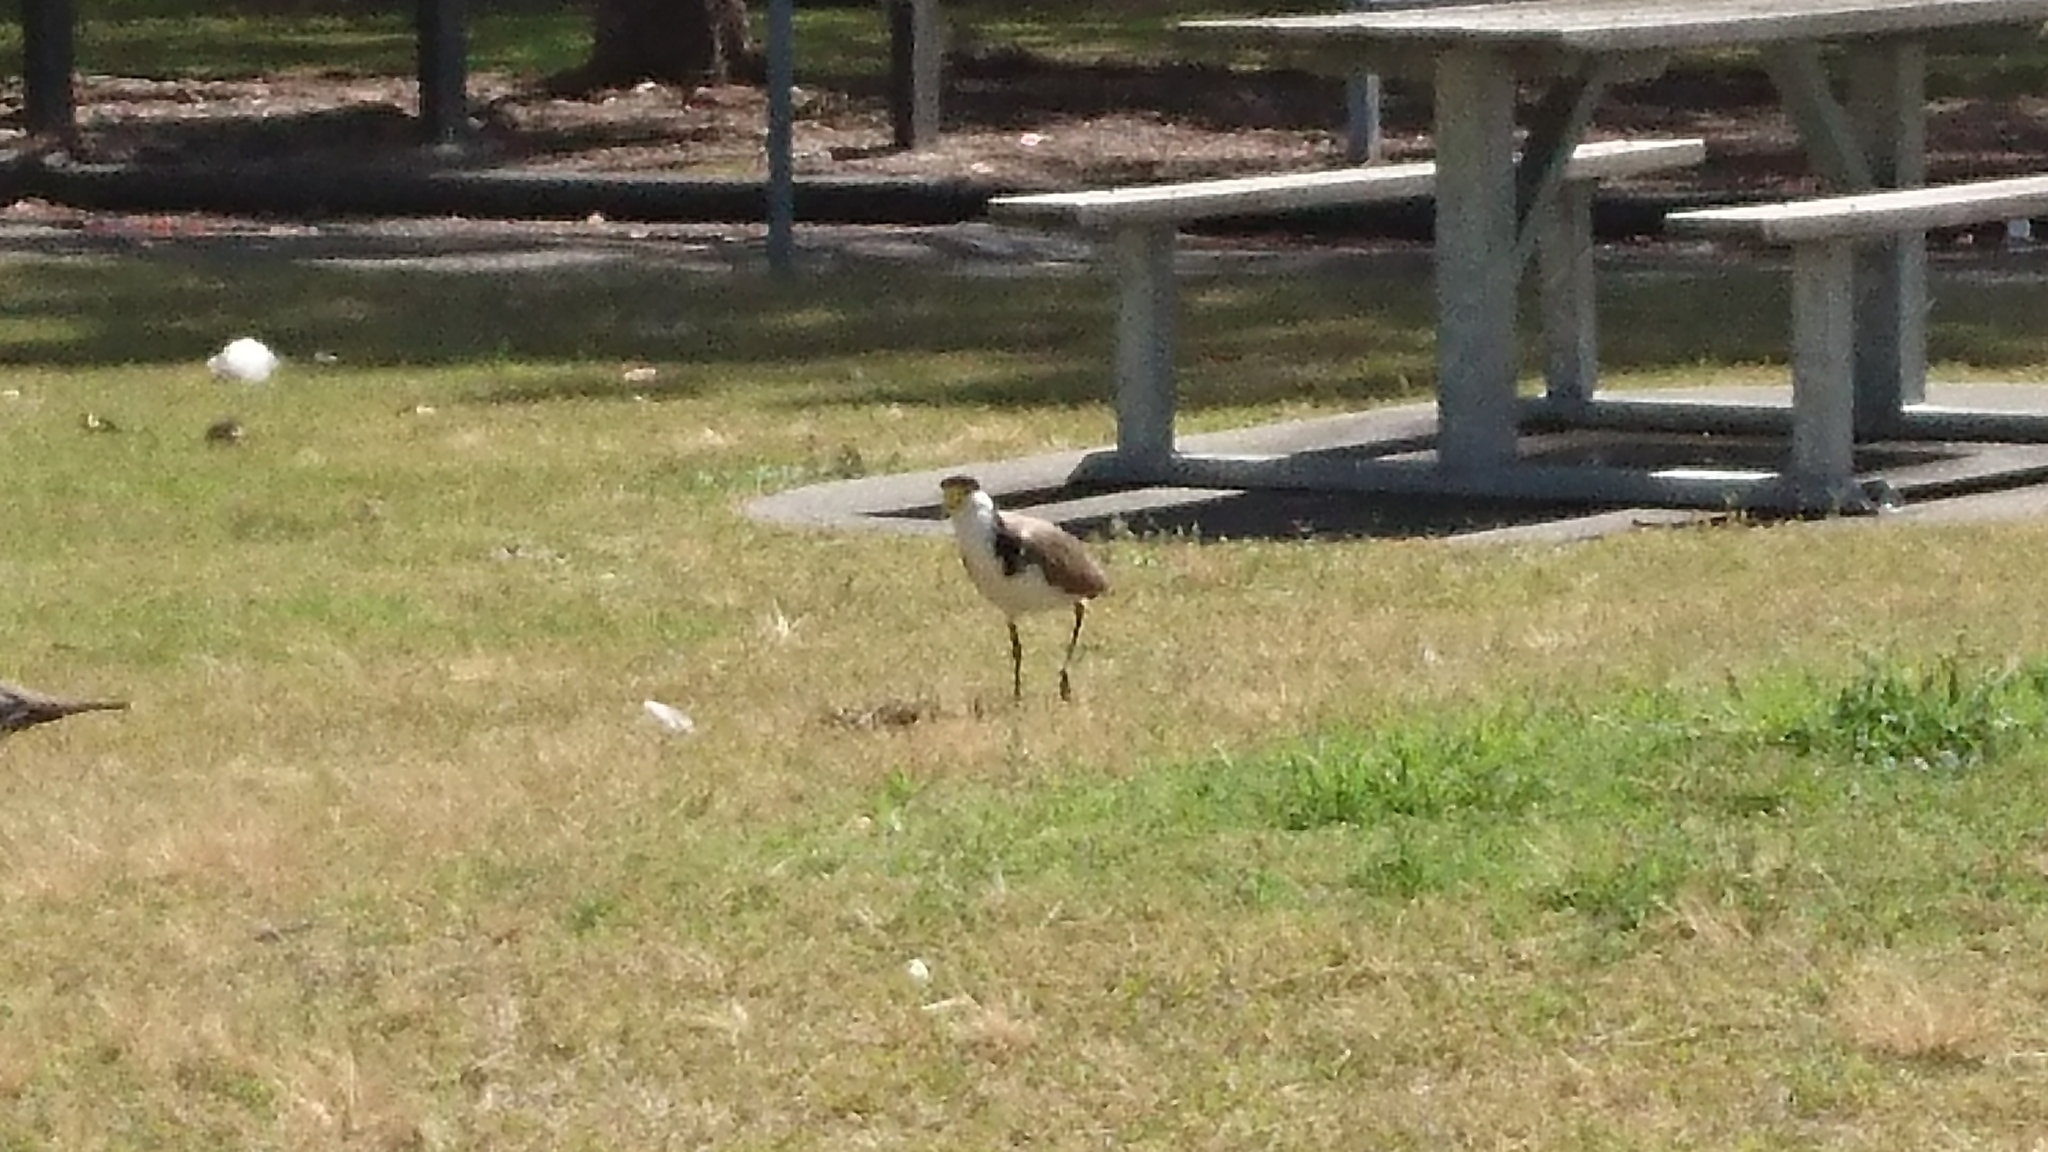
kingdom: Animalia
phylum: Chordata
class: Aves
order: Charadriiformes
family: Charadriidae
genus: Vanellus
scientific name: Vanellus miles
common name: Masked lapwing
